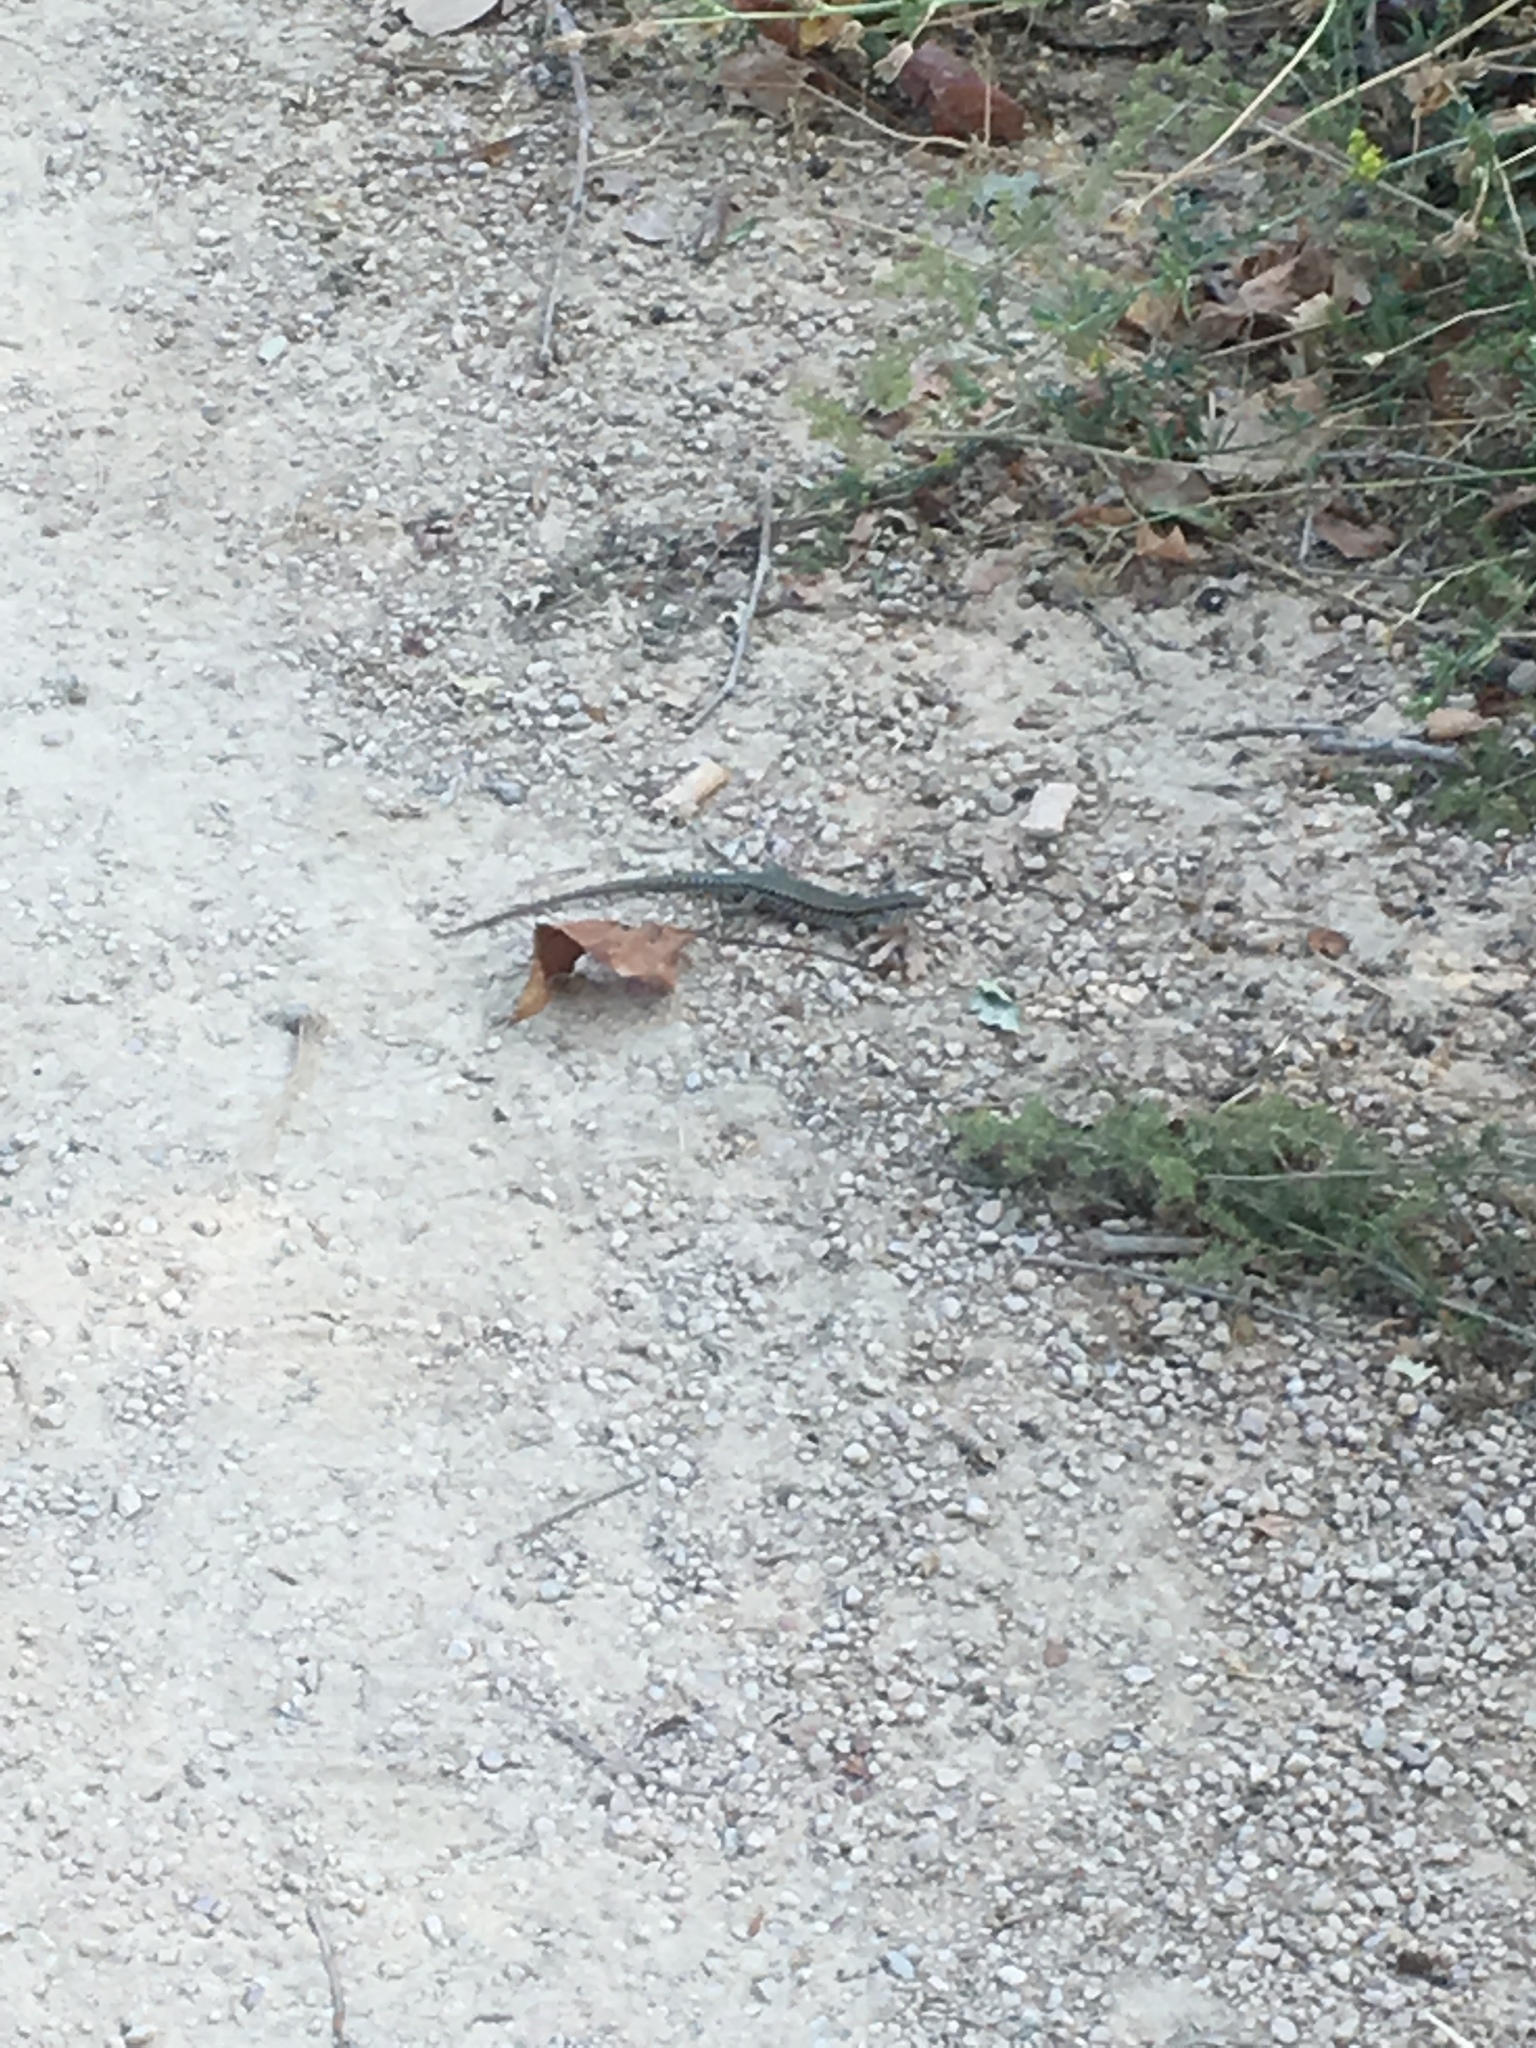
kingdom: Animalia
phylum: Chordata
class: Squamata
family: Lacertidae
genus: Podarcis
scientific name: Podarcis muralis
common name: Common wall lizard
